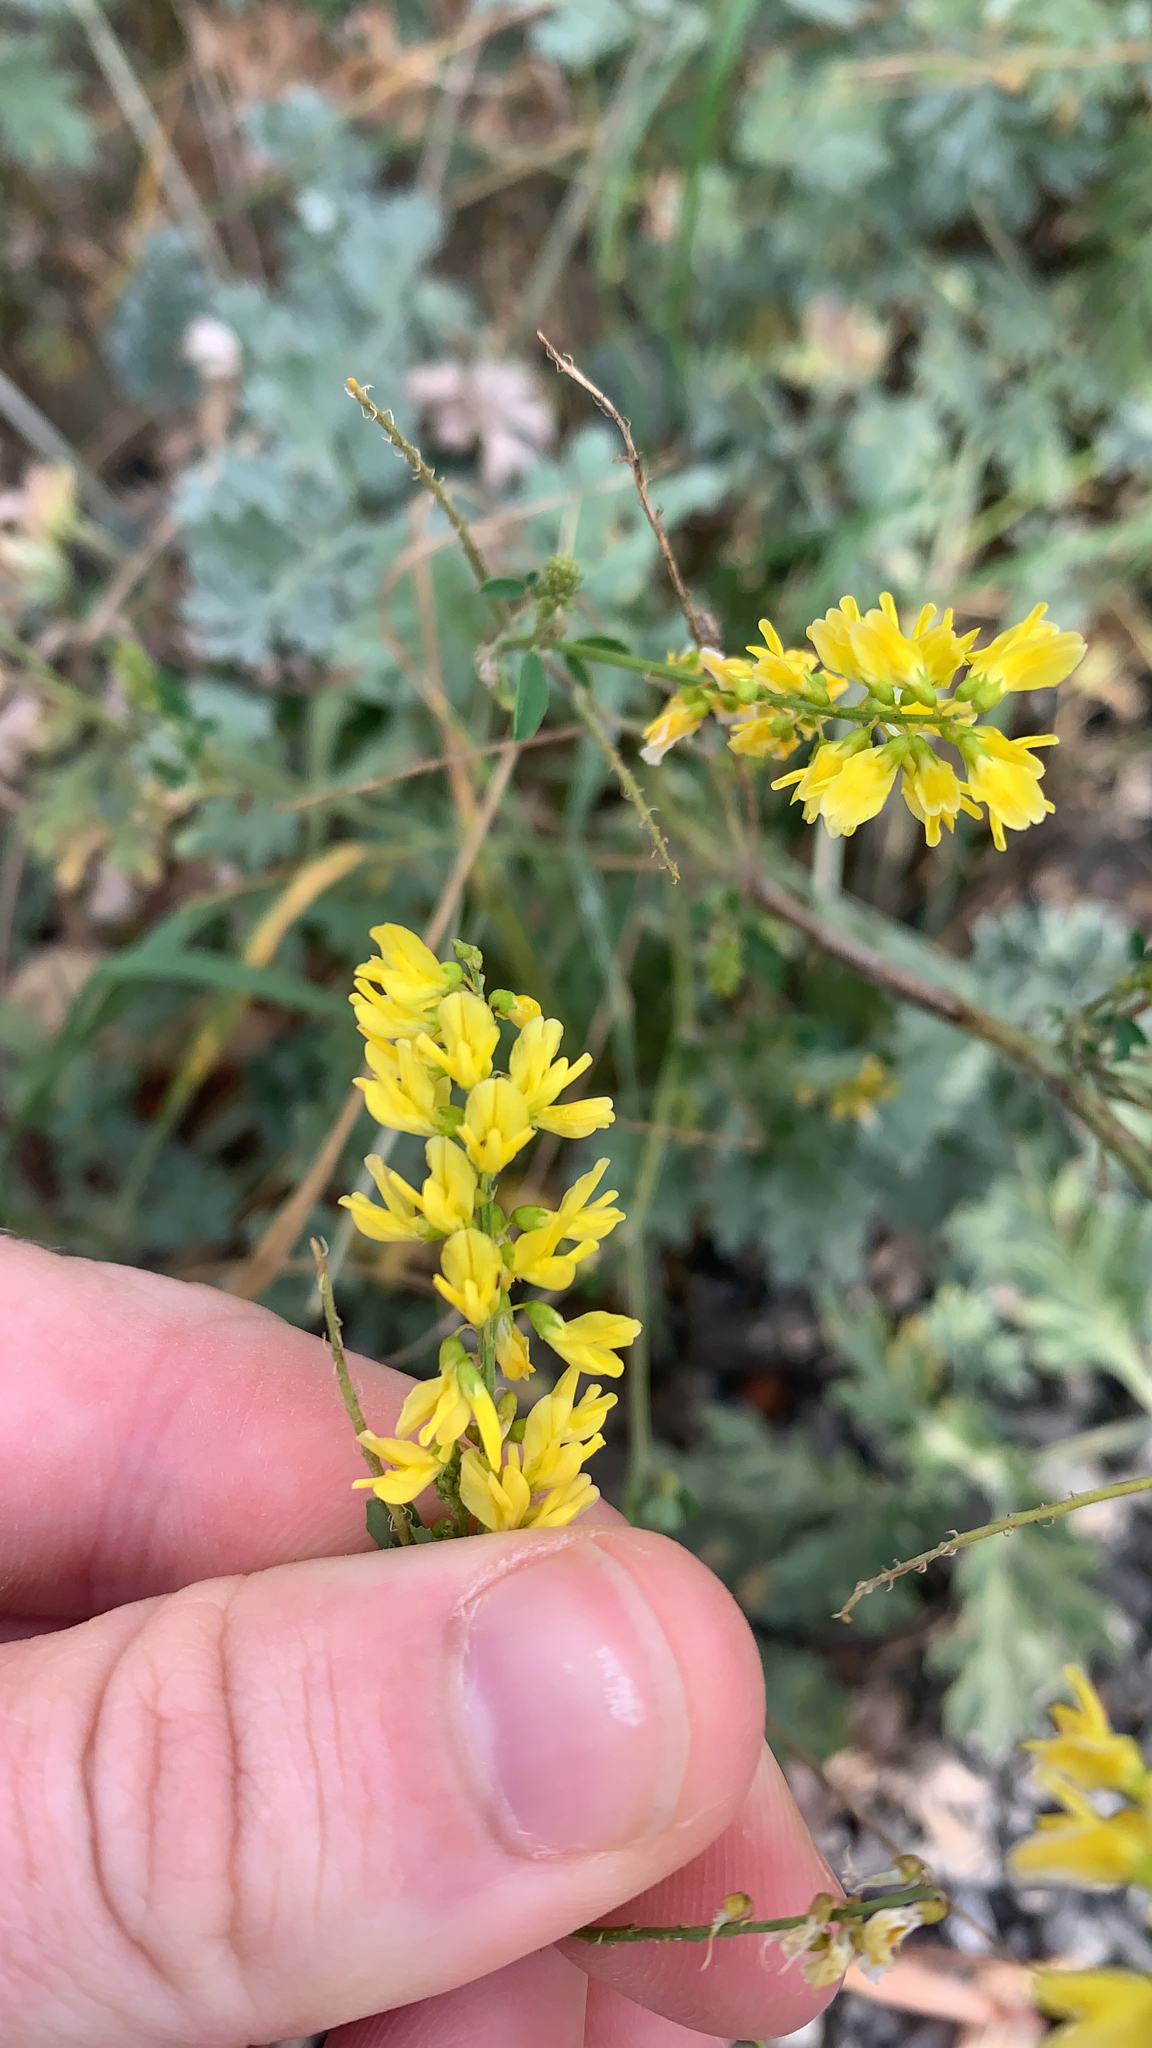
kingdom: Plantae
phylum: Tracheophyta
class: Magnoliopsida
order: Fabales
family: Fabaceae
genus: Melilotus
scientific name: Melilotus officinalis
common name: Sweetclover
